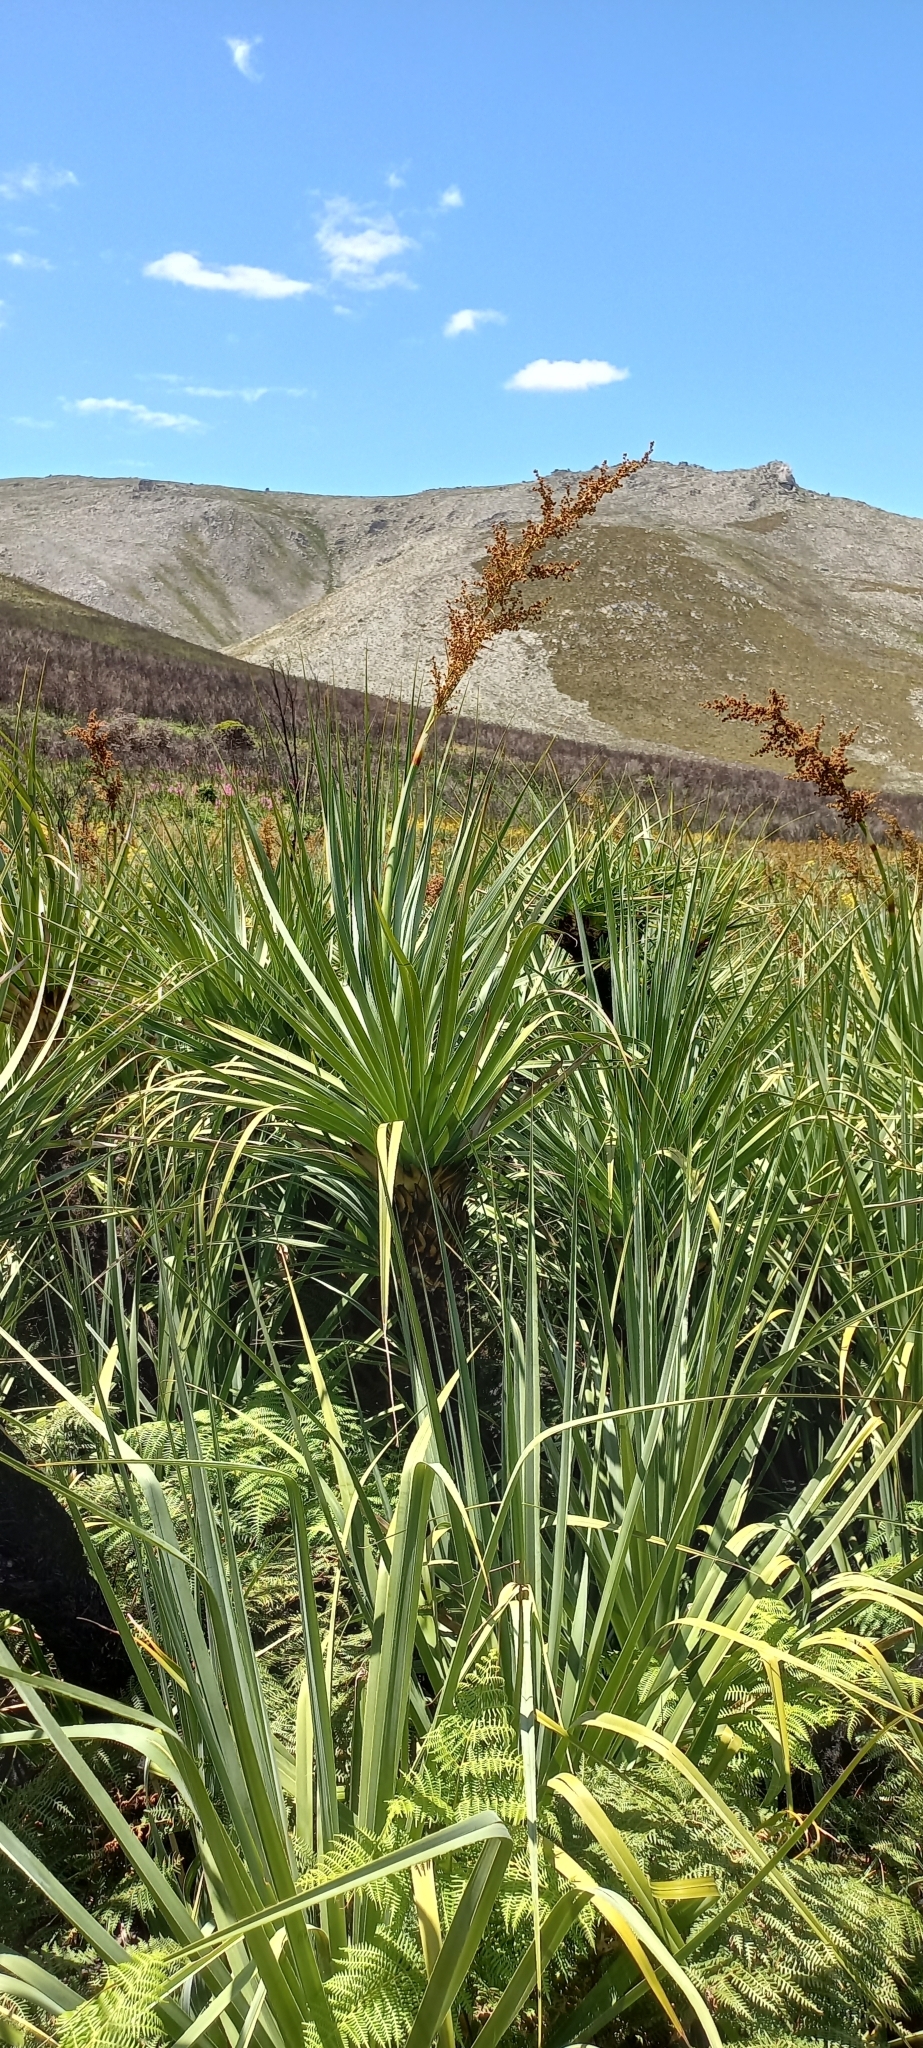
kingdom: Plantae
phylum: Tracheophyta
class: Liliopsida
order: Poales
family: Thurniaceae
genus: Prionium
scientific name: Prionium serratum
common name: Palmiet
